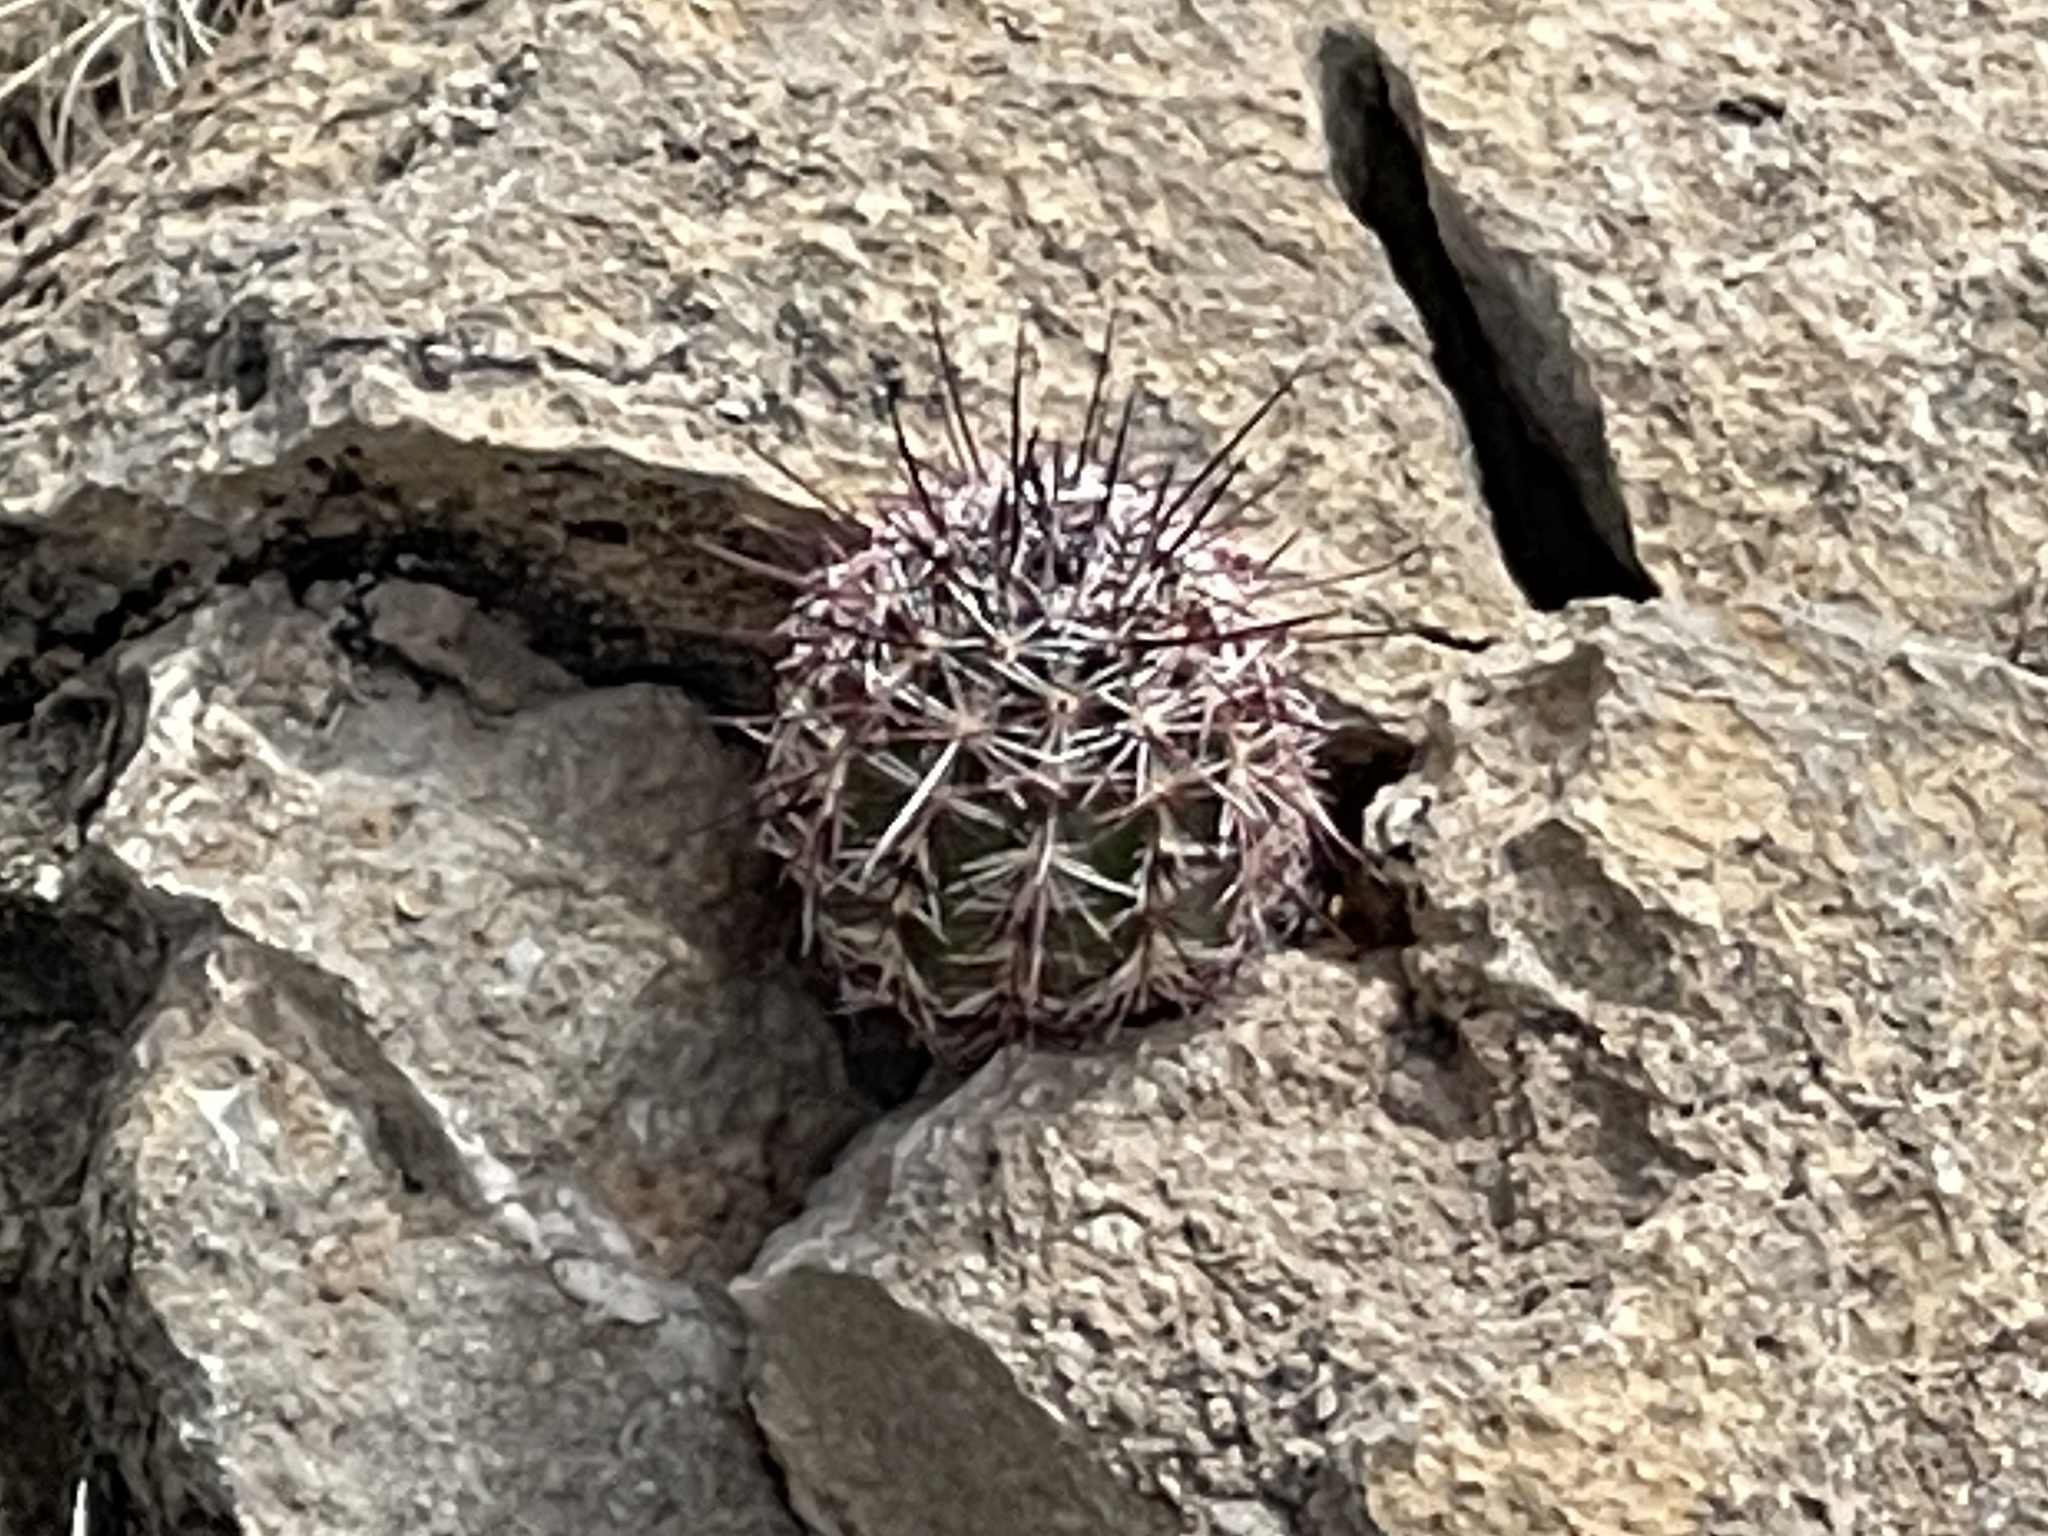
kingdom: Plantae
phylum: Tracheophyta
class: Magnoliopsida
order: Caryophyllales
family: Cactaceae
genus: Echinocereus
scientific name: Echinocereus viridiflorus
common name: Nylon hedgehog cactus
